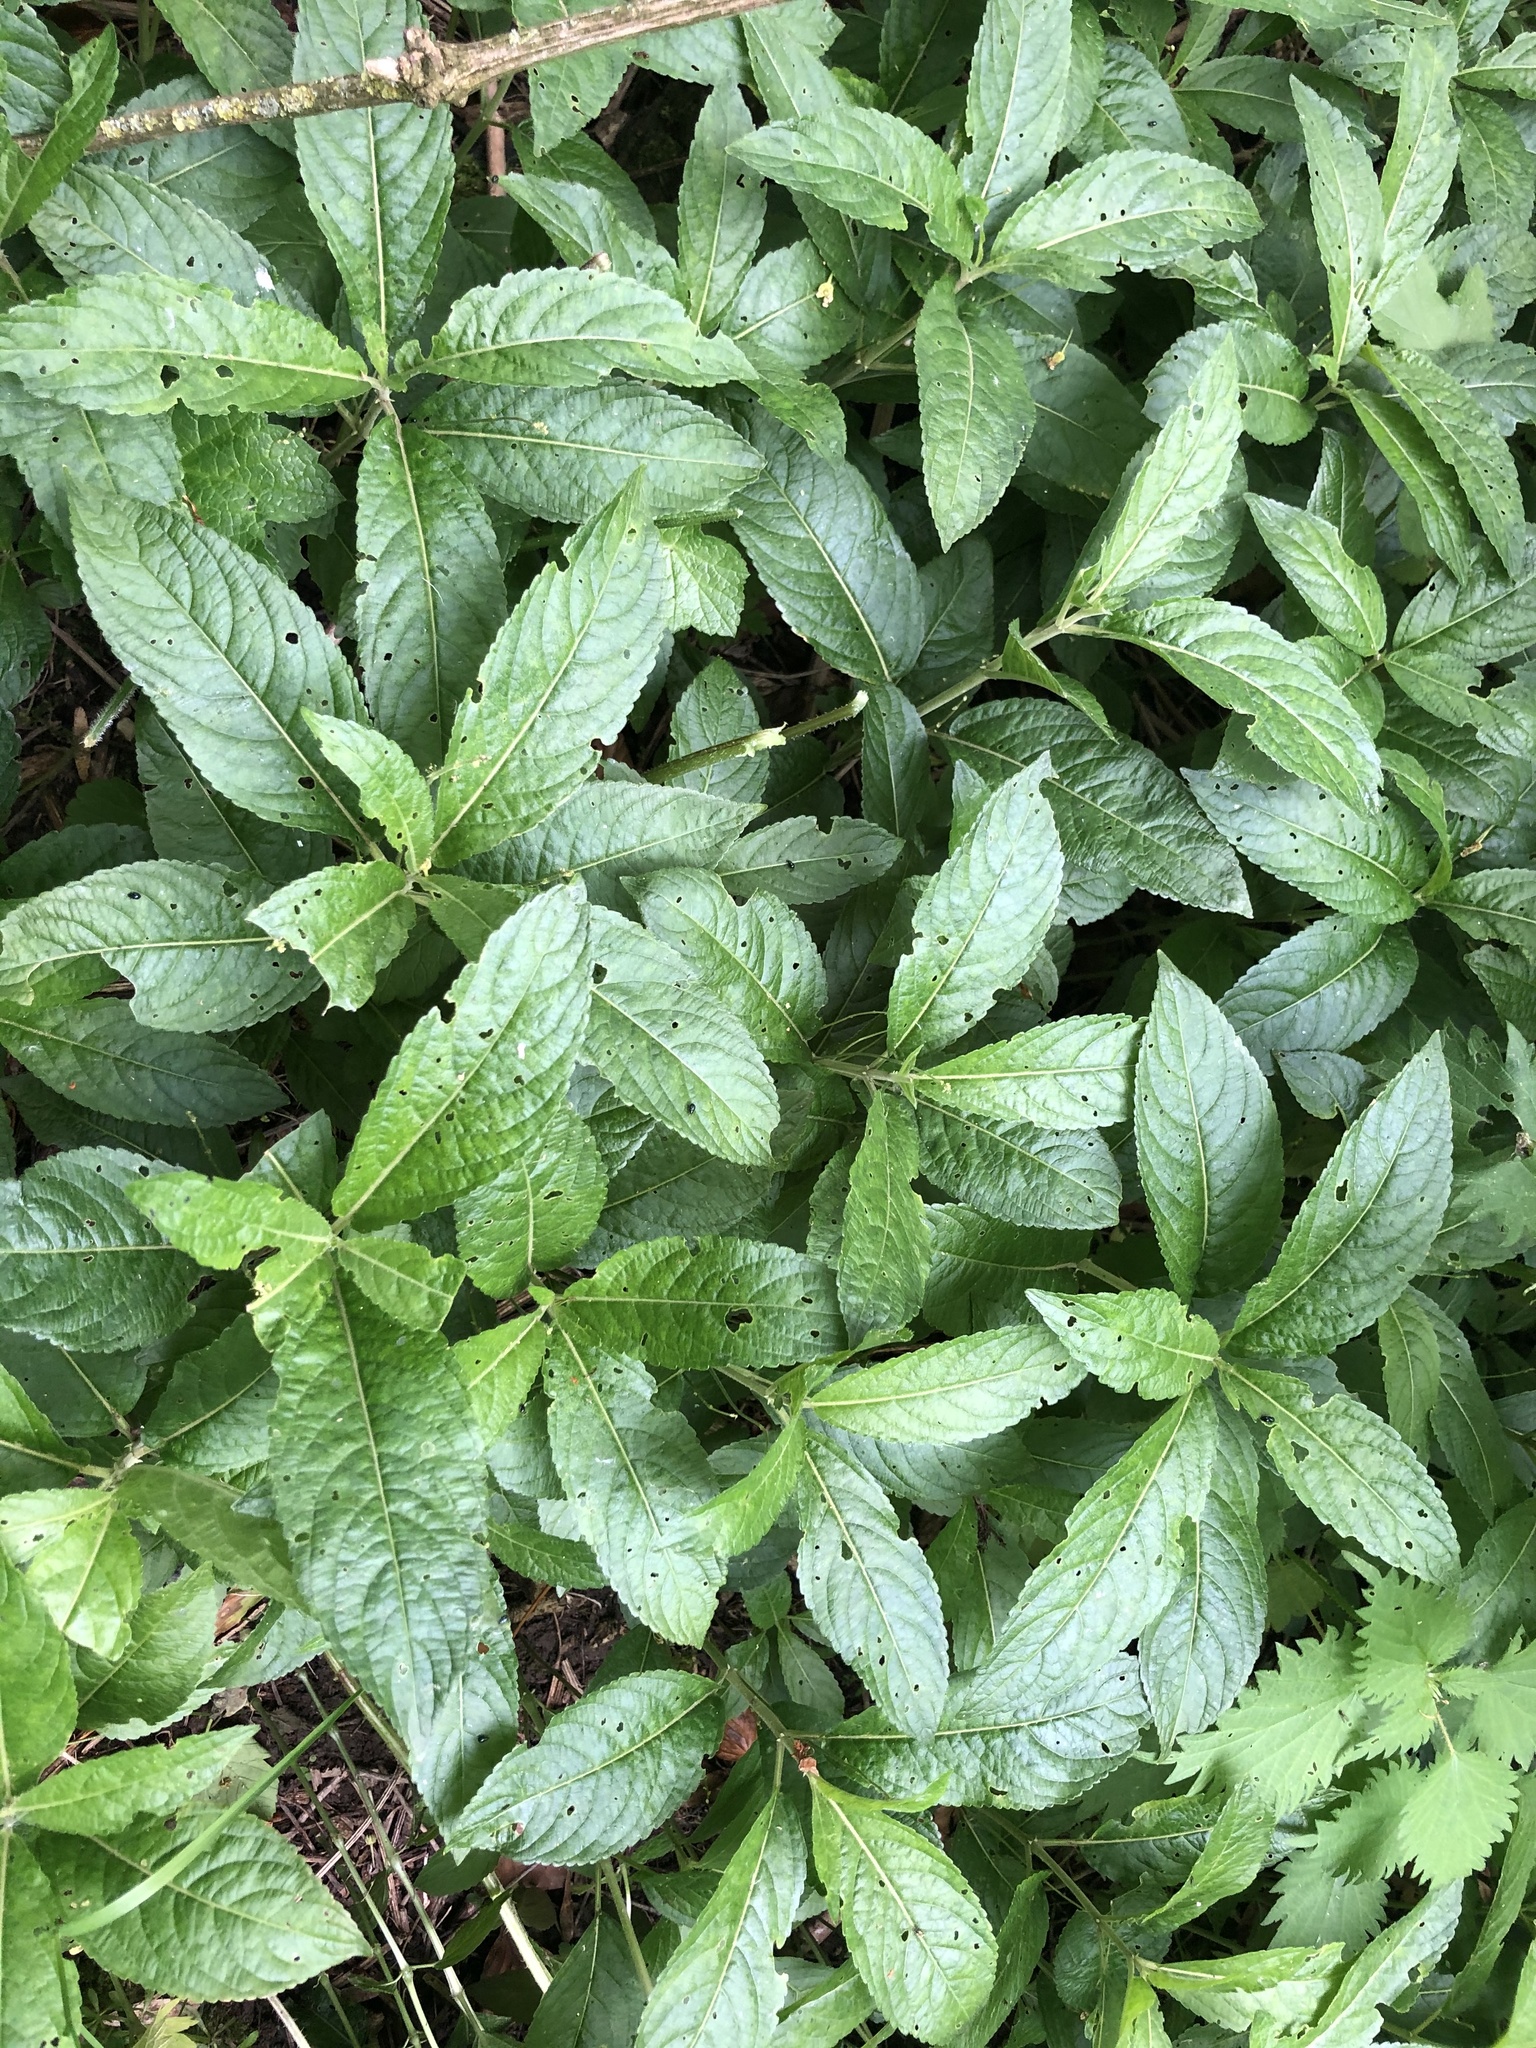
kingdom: Plantae
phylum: Tracheophyta
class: Magnoliopsida
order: Malpighiales
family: Euphorbiaceae
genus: Mercurialis
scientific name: Mercurialis perennis
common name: Dog mercury
